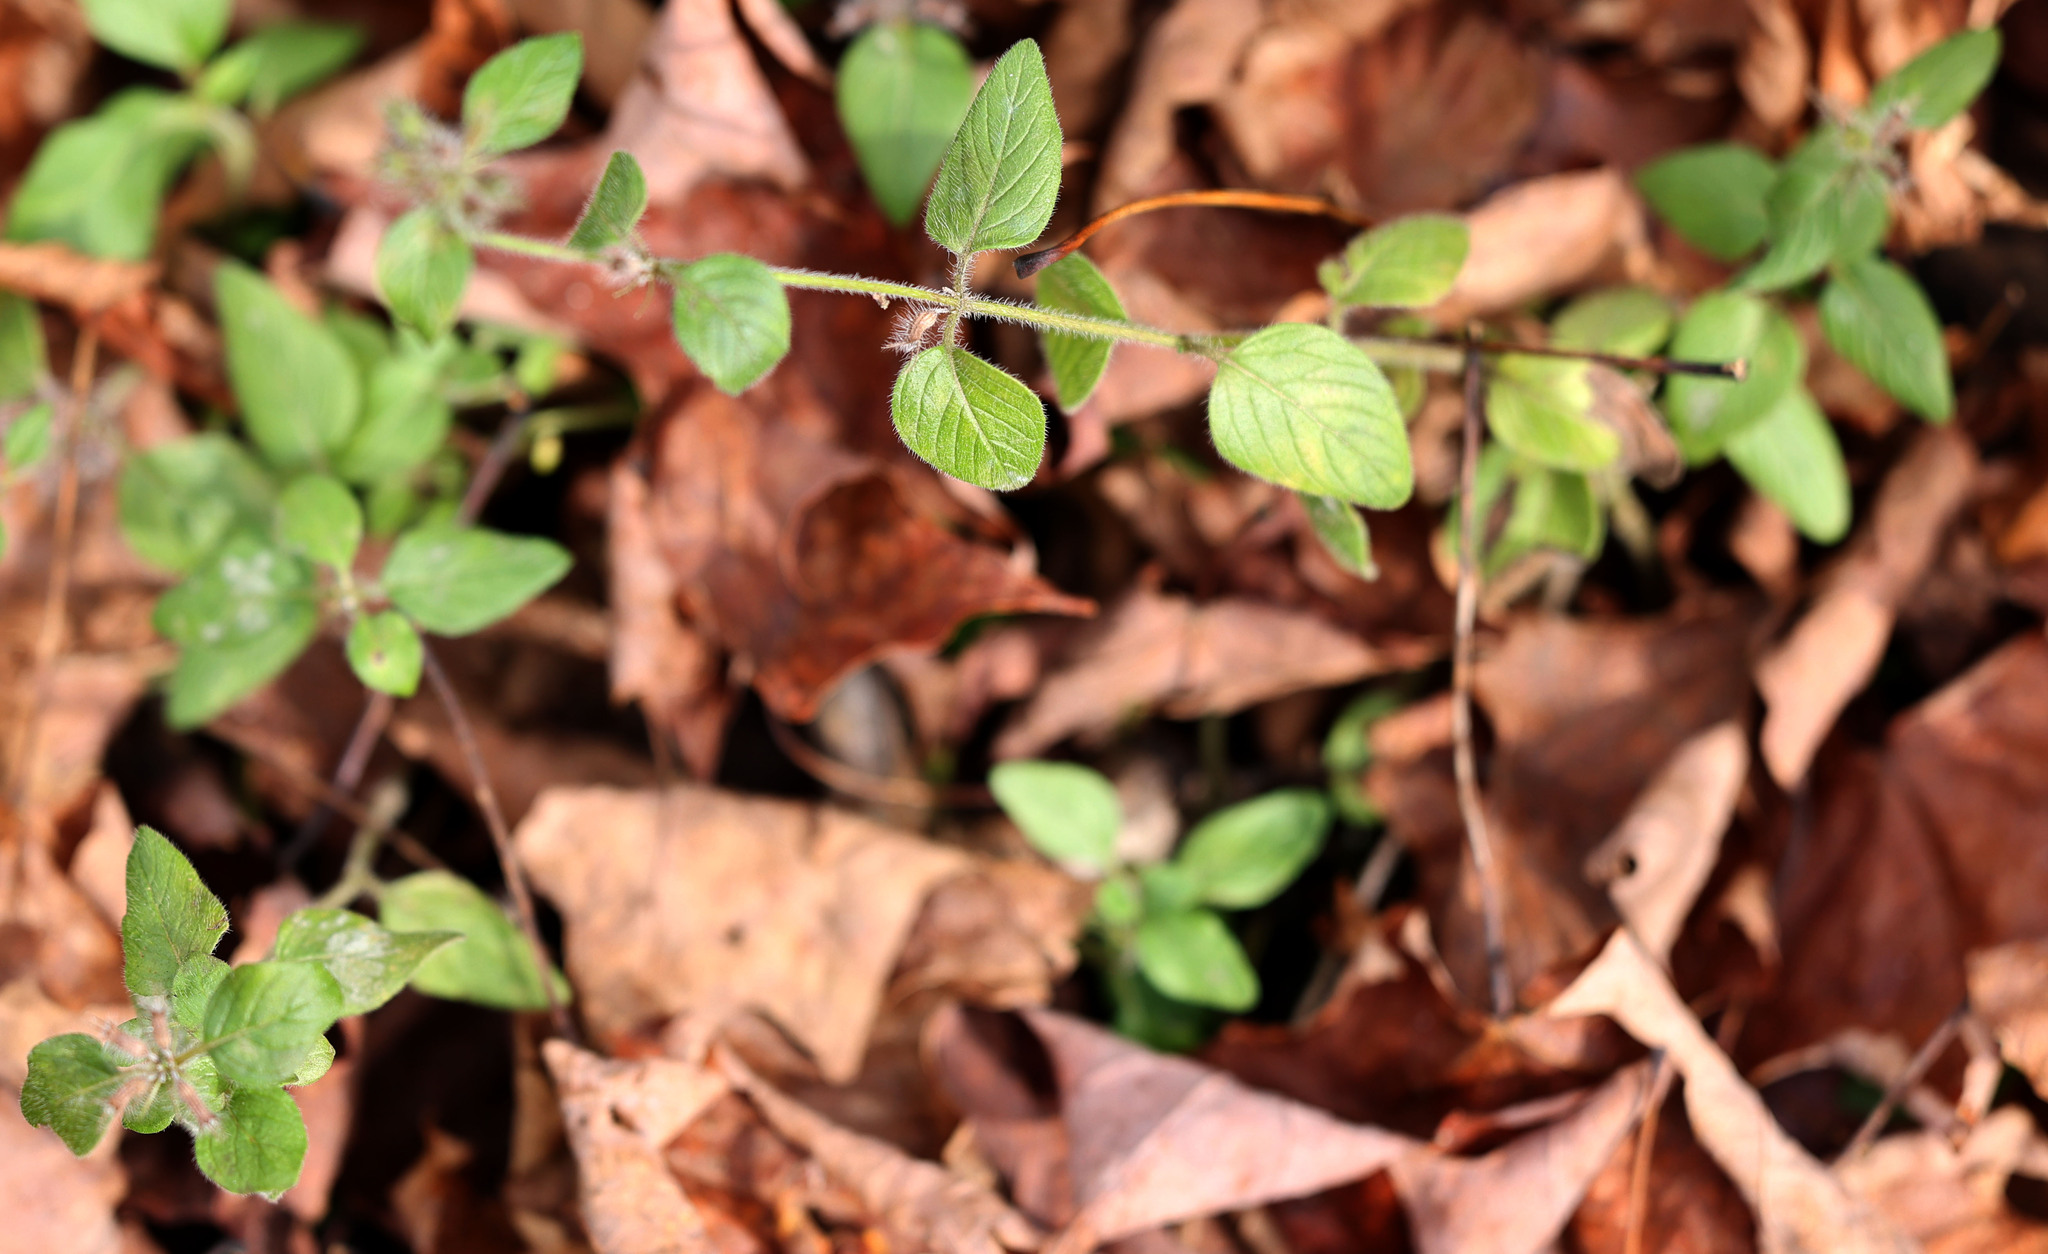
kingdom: Plantae
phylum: Tracheophyta
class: Magnoliopsida
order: Lamiales
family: Lamiaceae
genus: Clinopodium
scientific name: Clinopodium vulgare
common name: Wild basil
